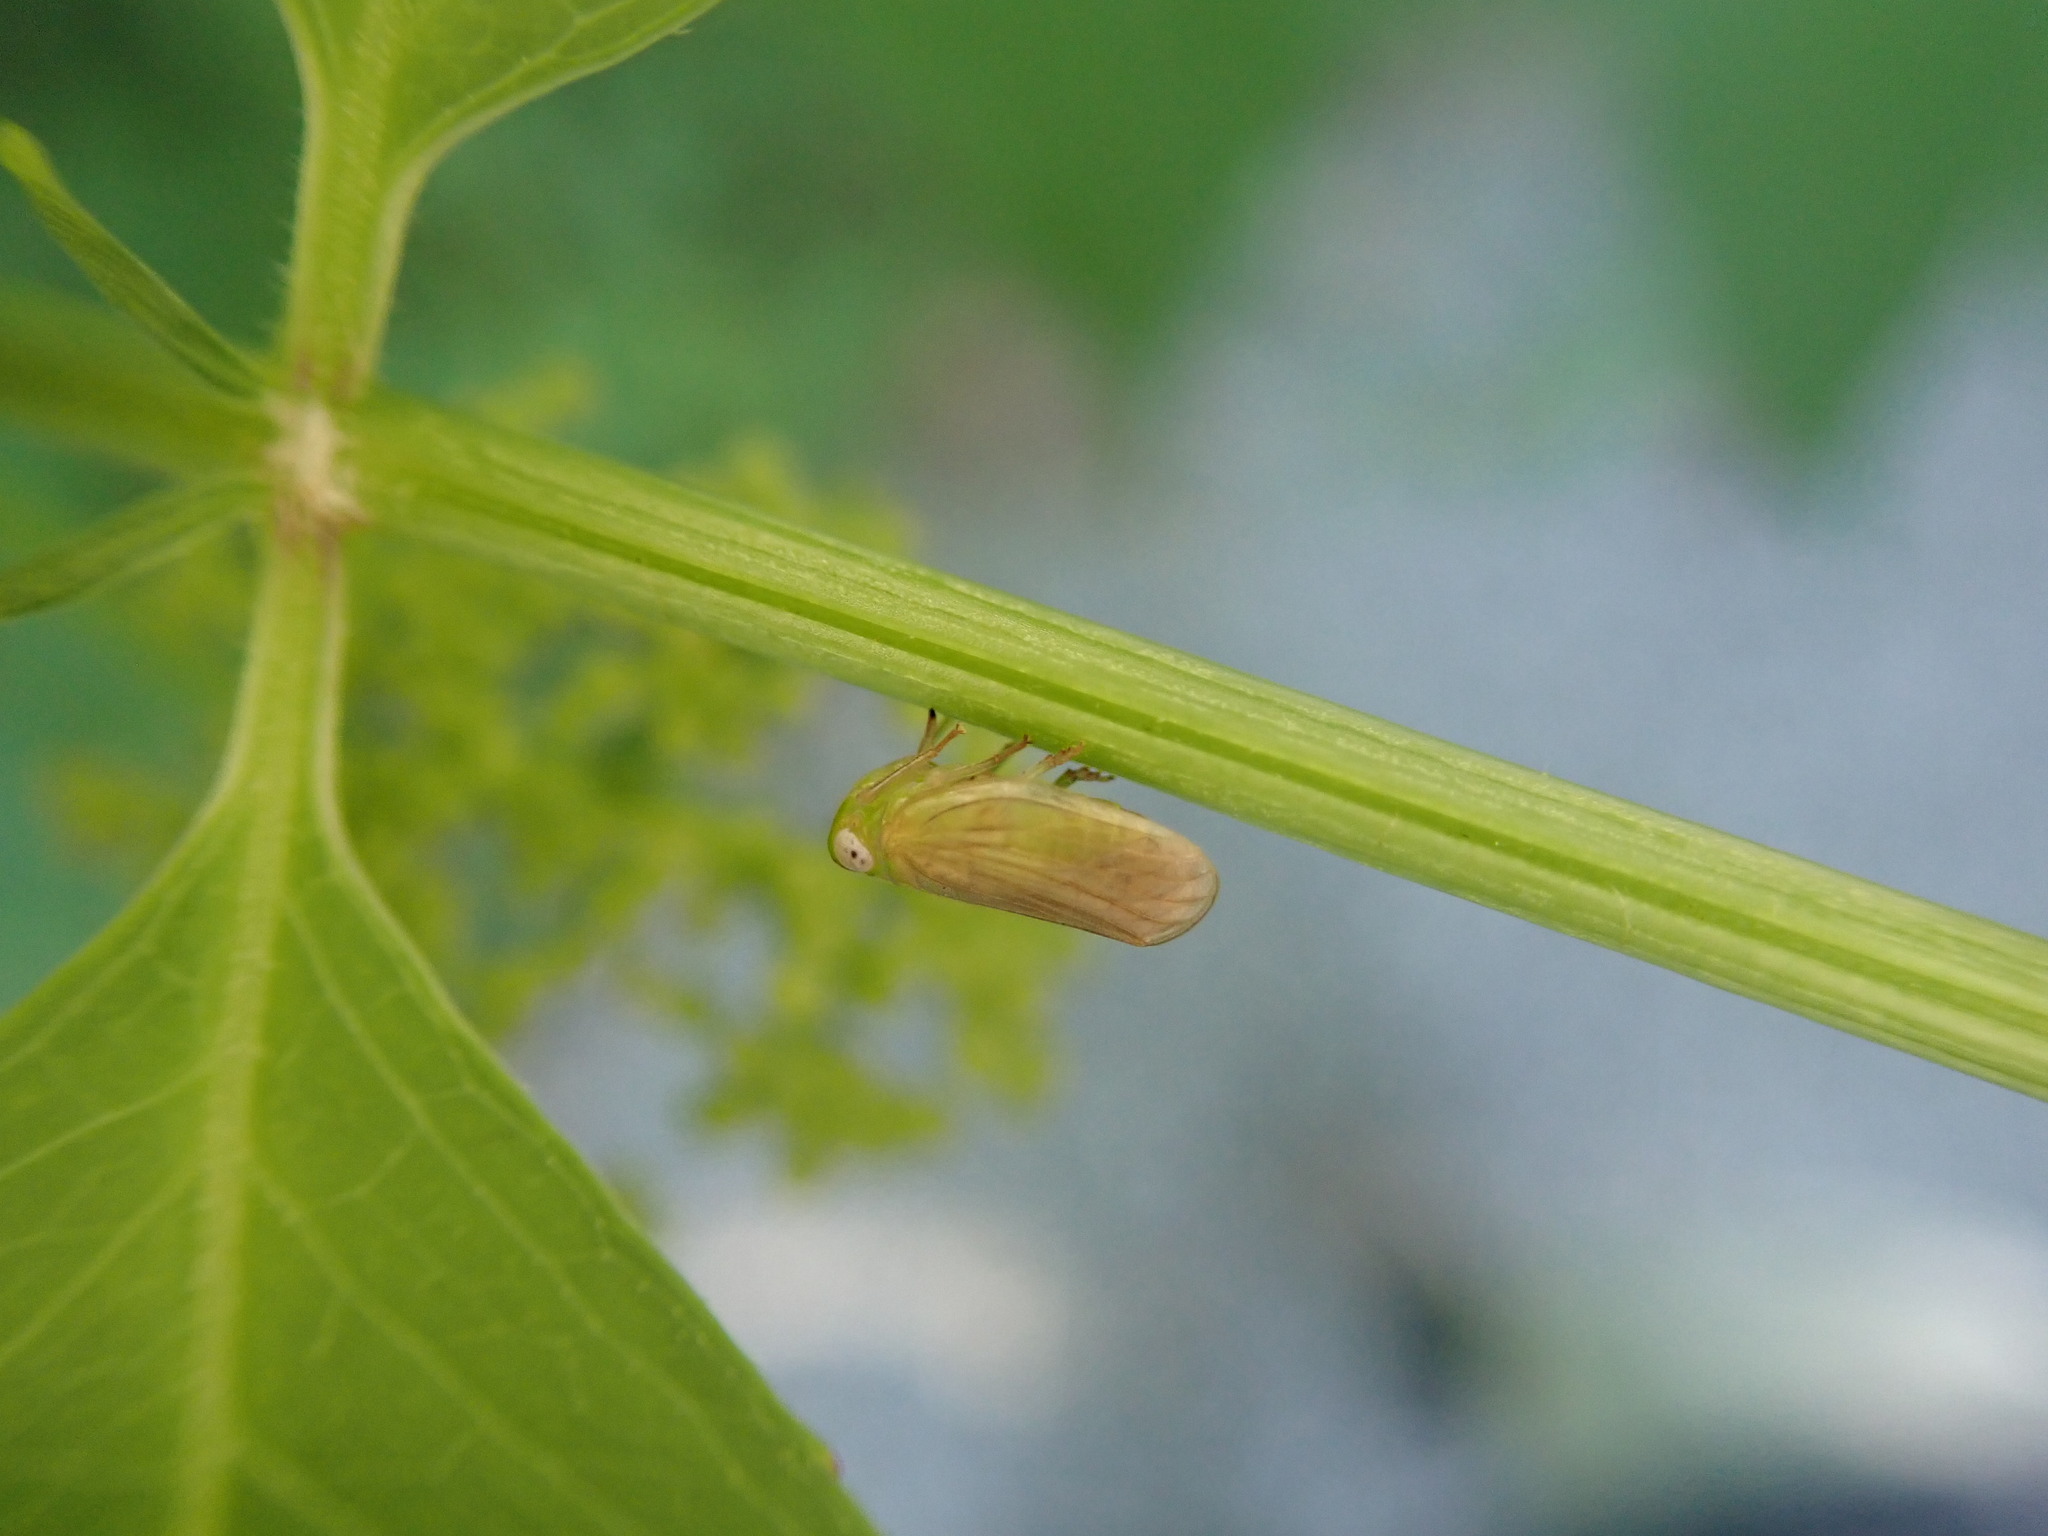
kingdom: Animalia
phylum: Arthropoda
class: Insecta
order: Hemiptera
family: Issidae
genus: Aplos
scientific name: Aplos simplex
